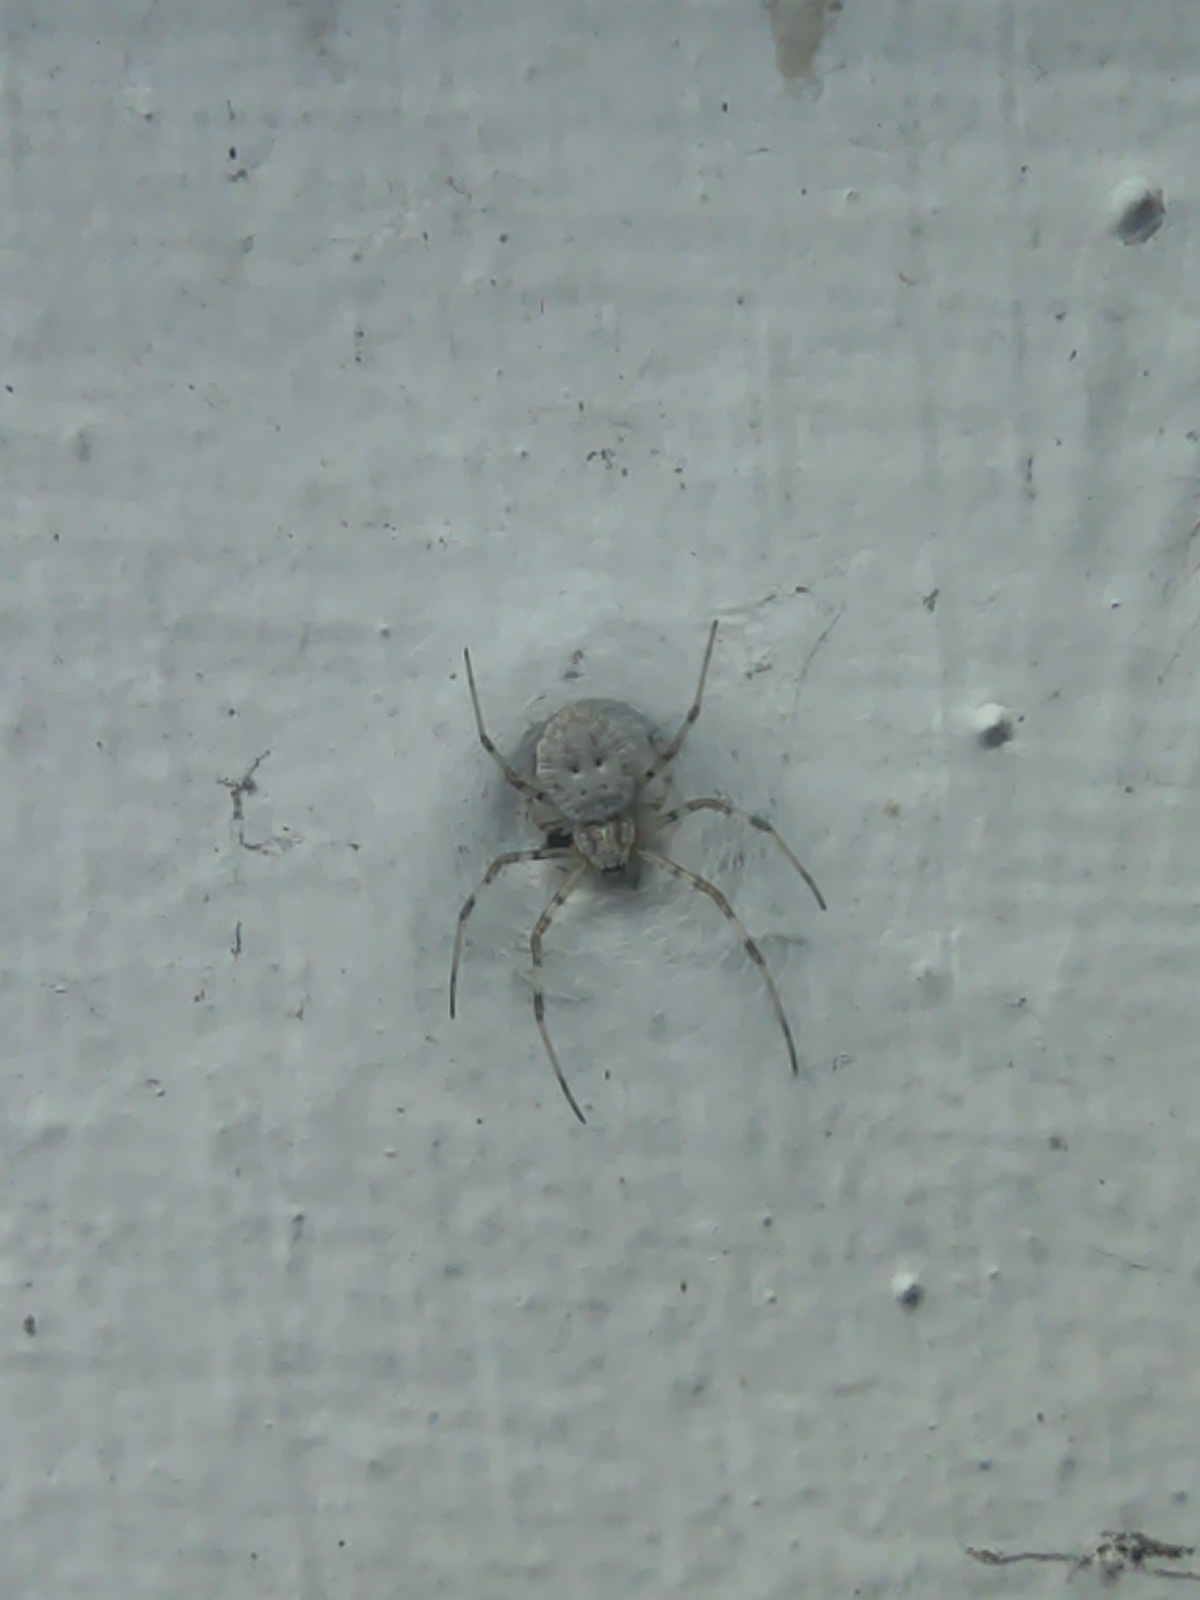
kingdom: Animalia
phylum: Arthropoda
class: Arachnida
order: Araneae
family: Araneidae
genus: Herennia
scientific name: Herennia multipuncta
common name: Spotted coin spider
